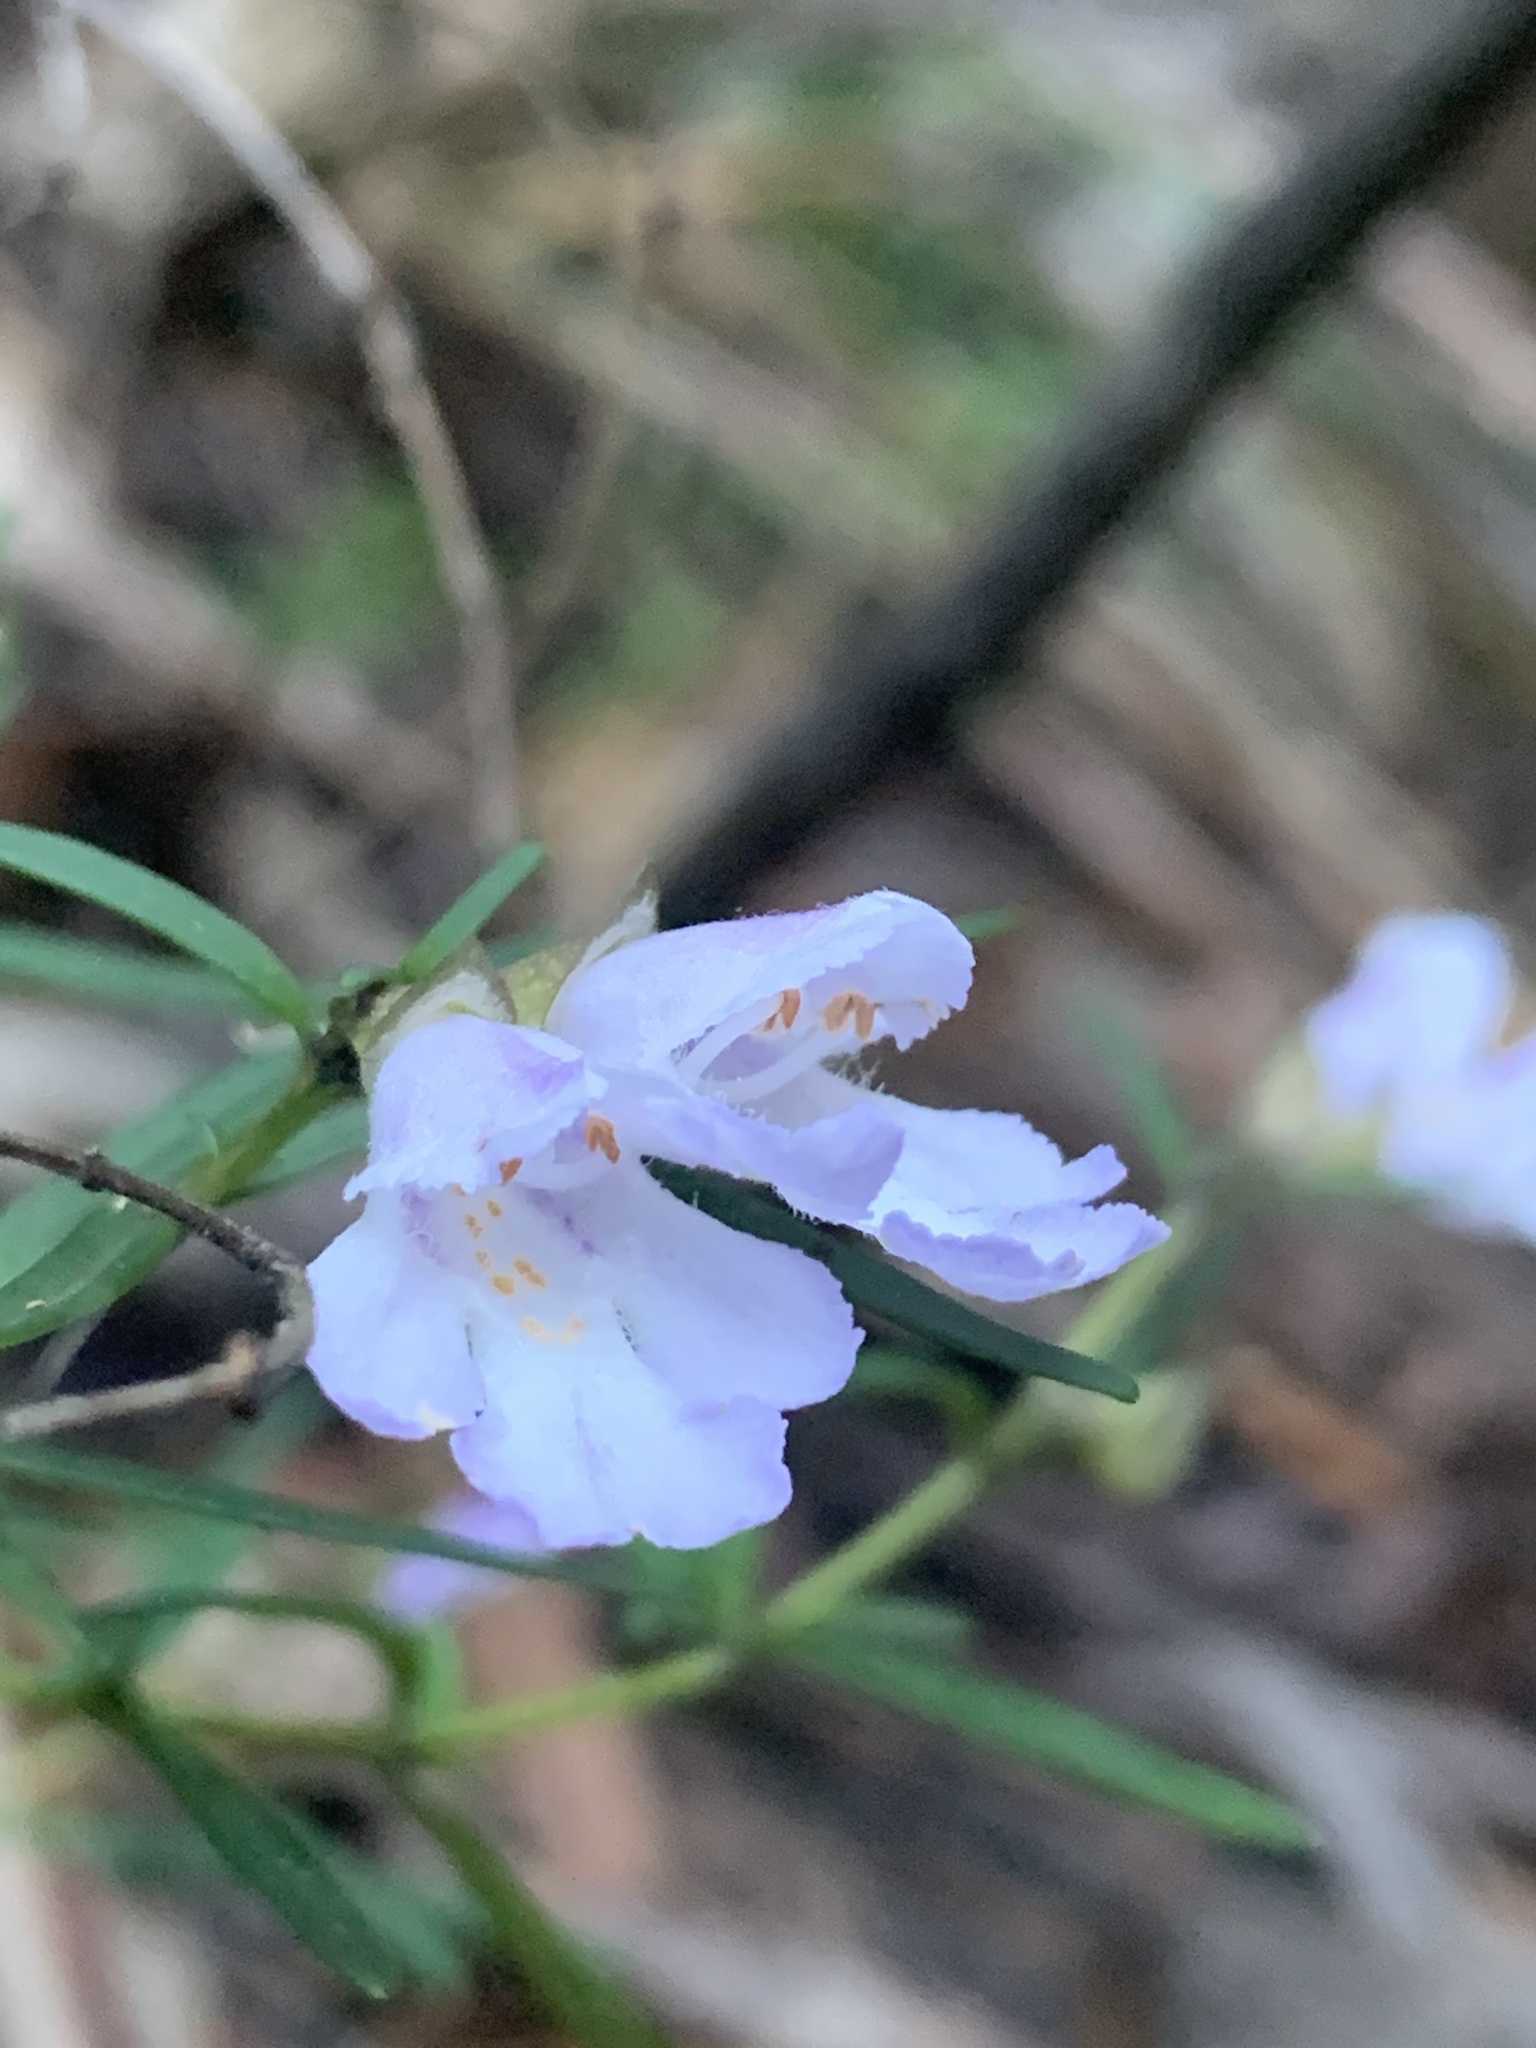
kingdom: Plantae
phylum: Tracheophyta
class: Magnoliopsida
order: Lamiales
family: Lamiaceae
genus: Prostanthera
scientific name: Prostanthera linearis
